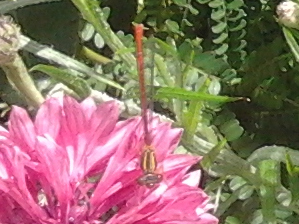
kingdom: Animalia
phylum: Arthropoda
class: Insecta
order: Odonata
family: Coenagrionidae
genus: Xanthocnemis
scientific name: Xanthocnemis zealandica
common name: Common redcoat damselfly
